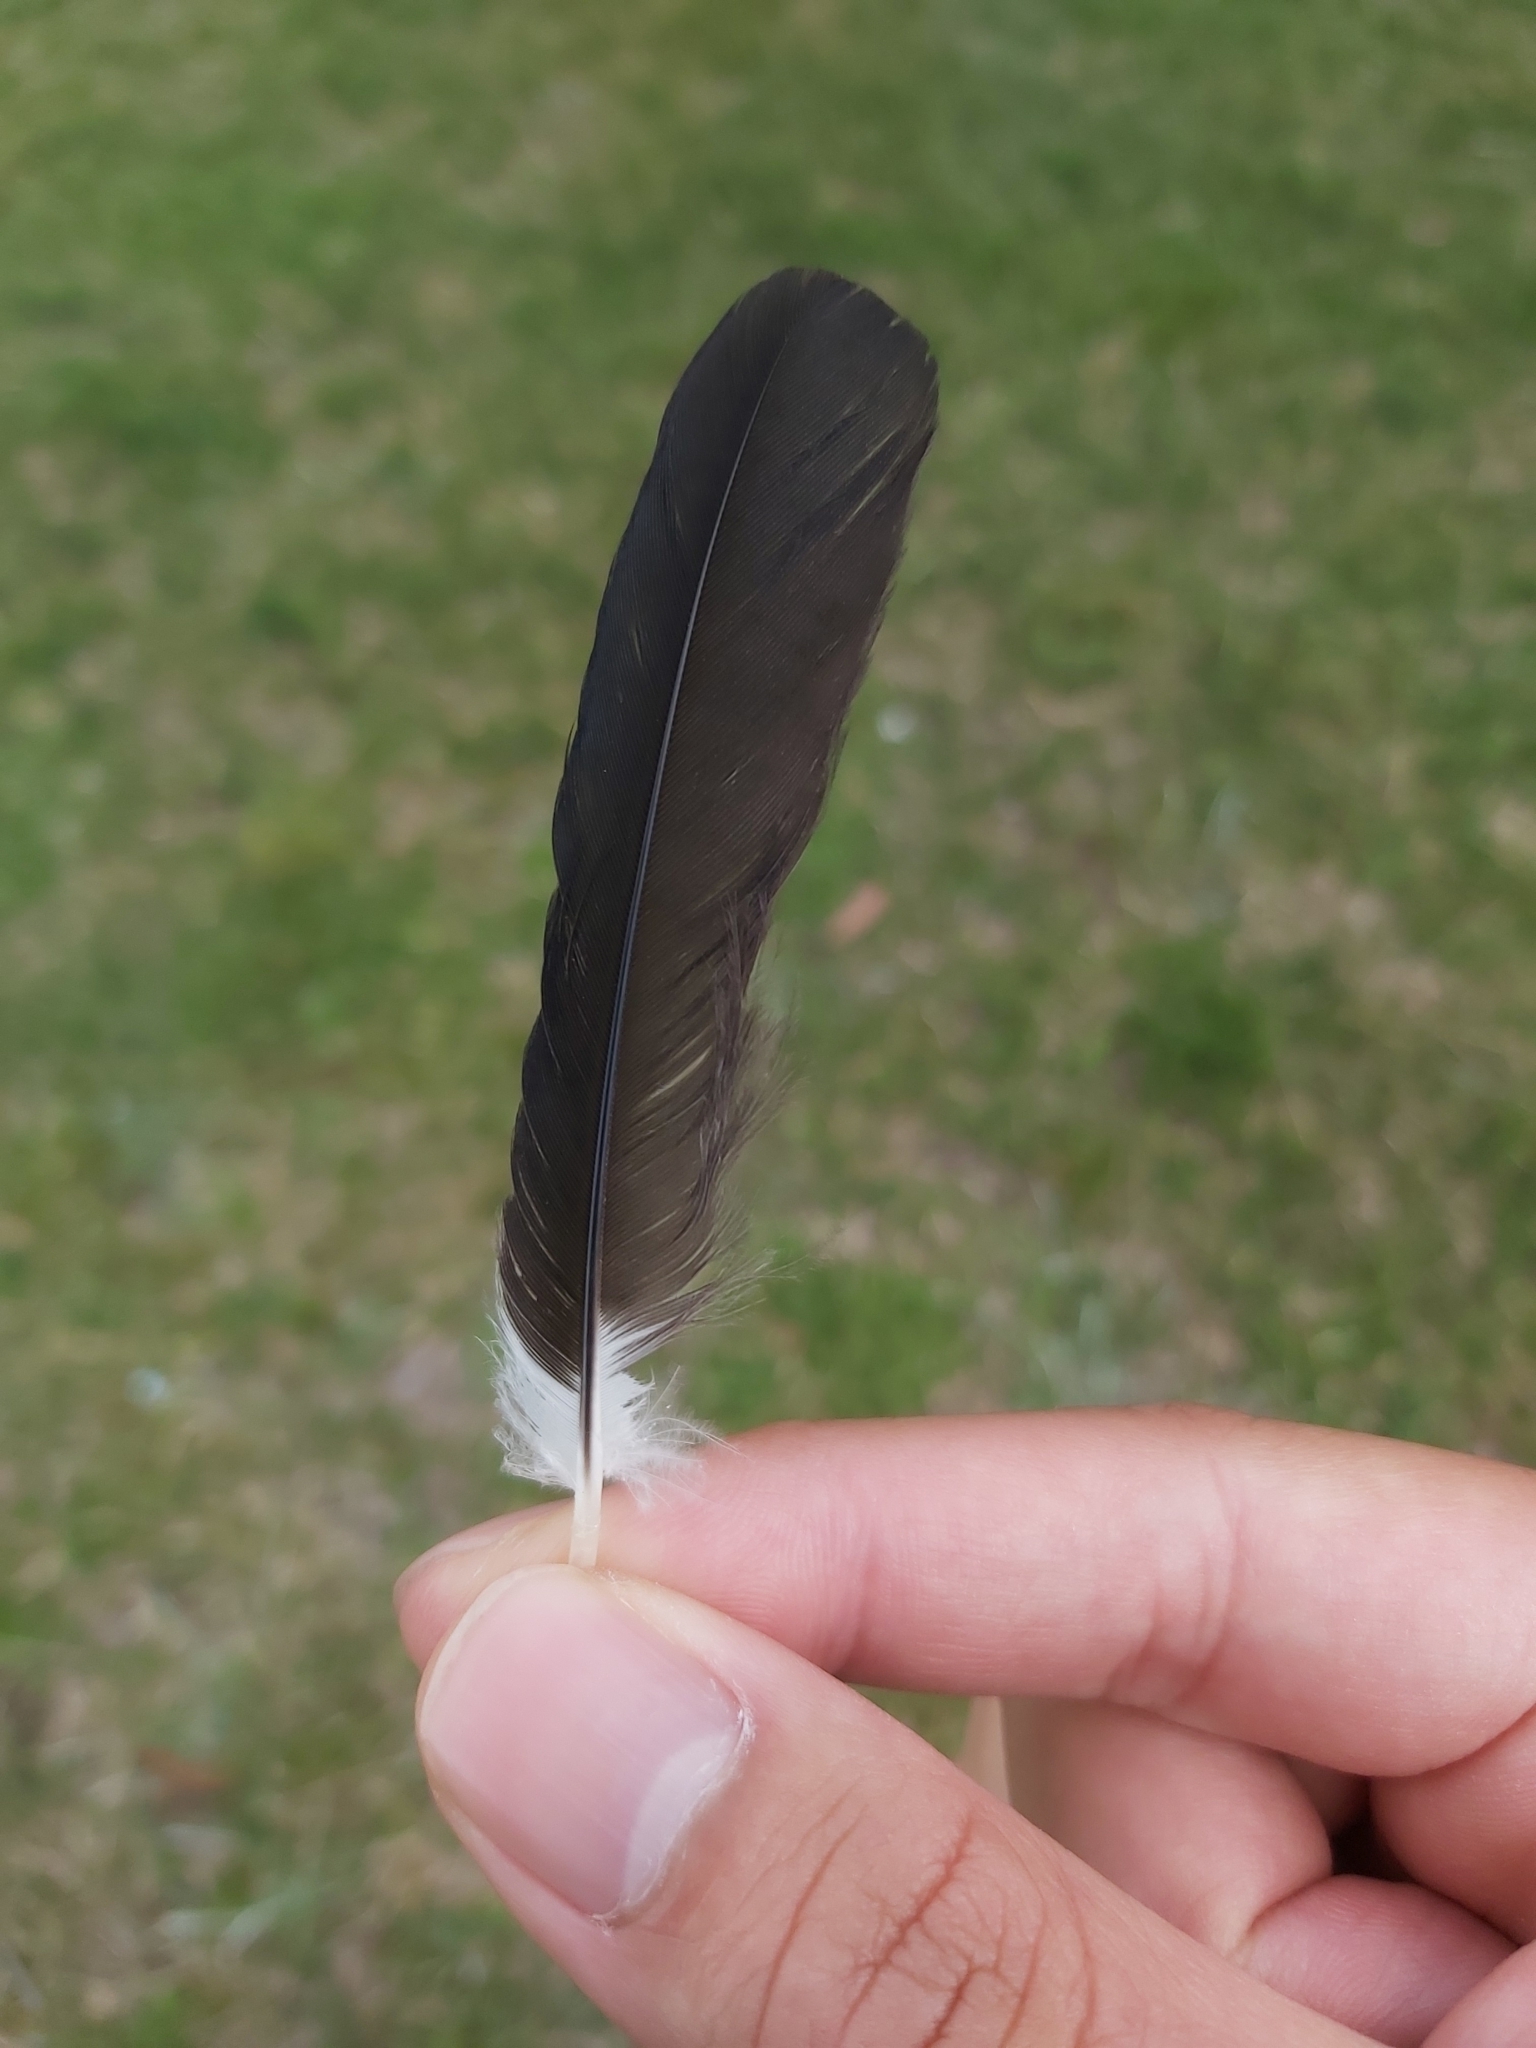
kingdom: Animalia
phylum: Chordata
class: Aves
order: Passeriformes
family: Cracticidae
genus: Gymnorhina
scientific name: Gymnorhina tibicen
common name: Australian magpie
